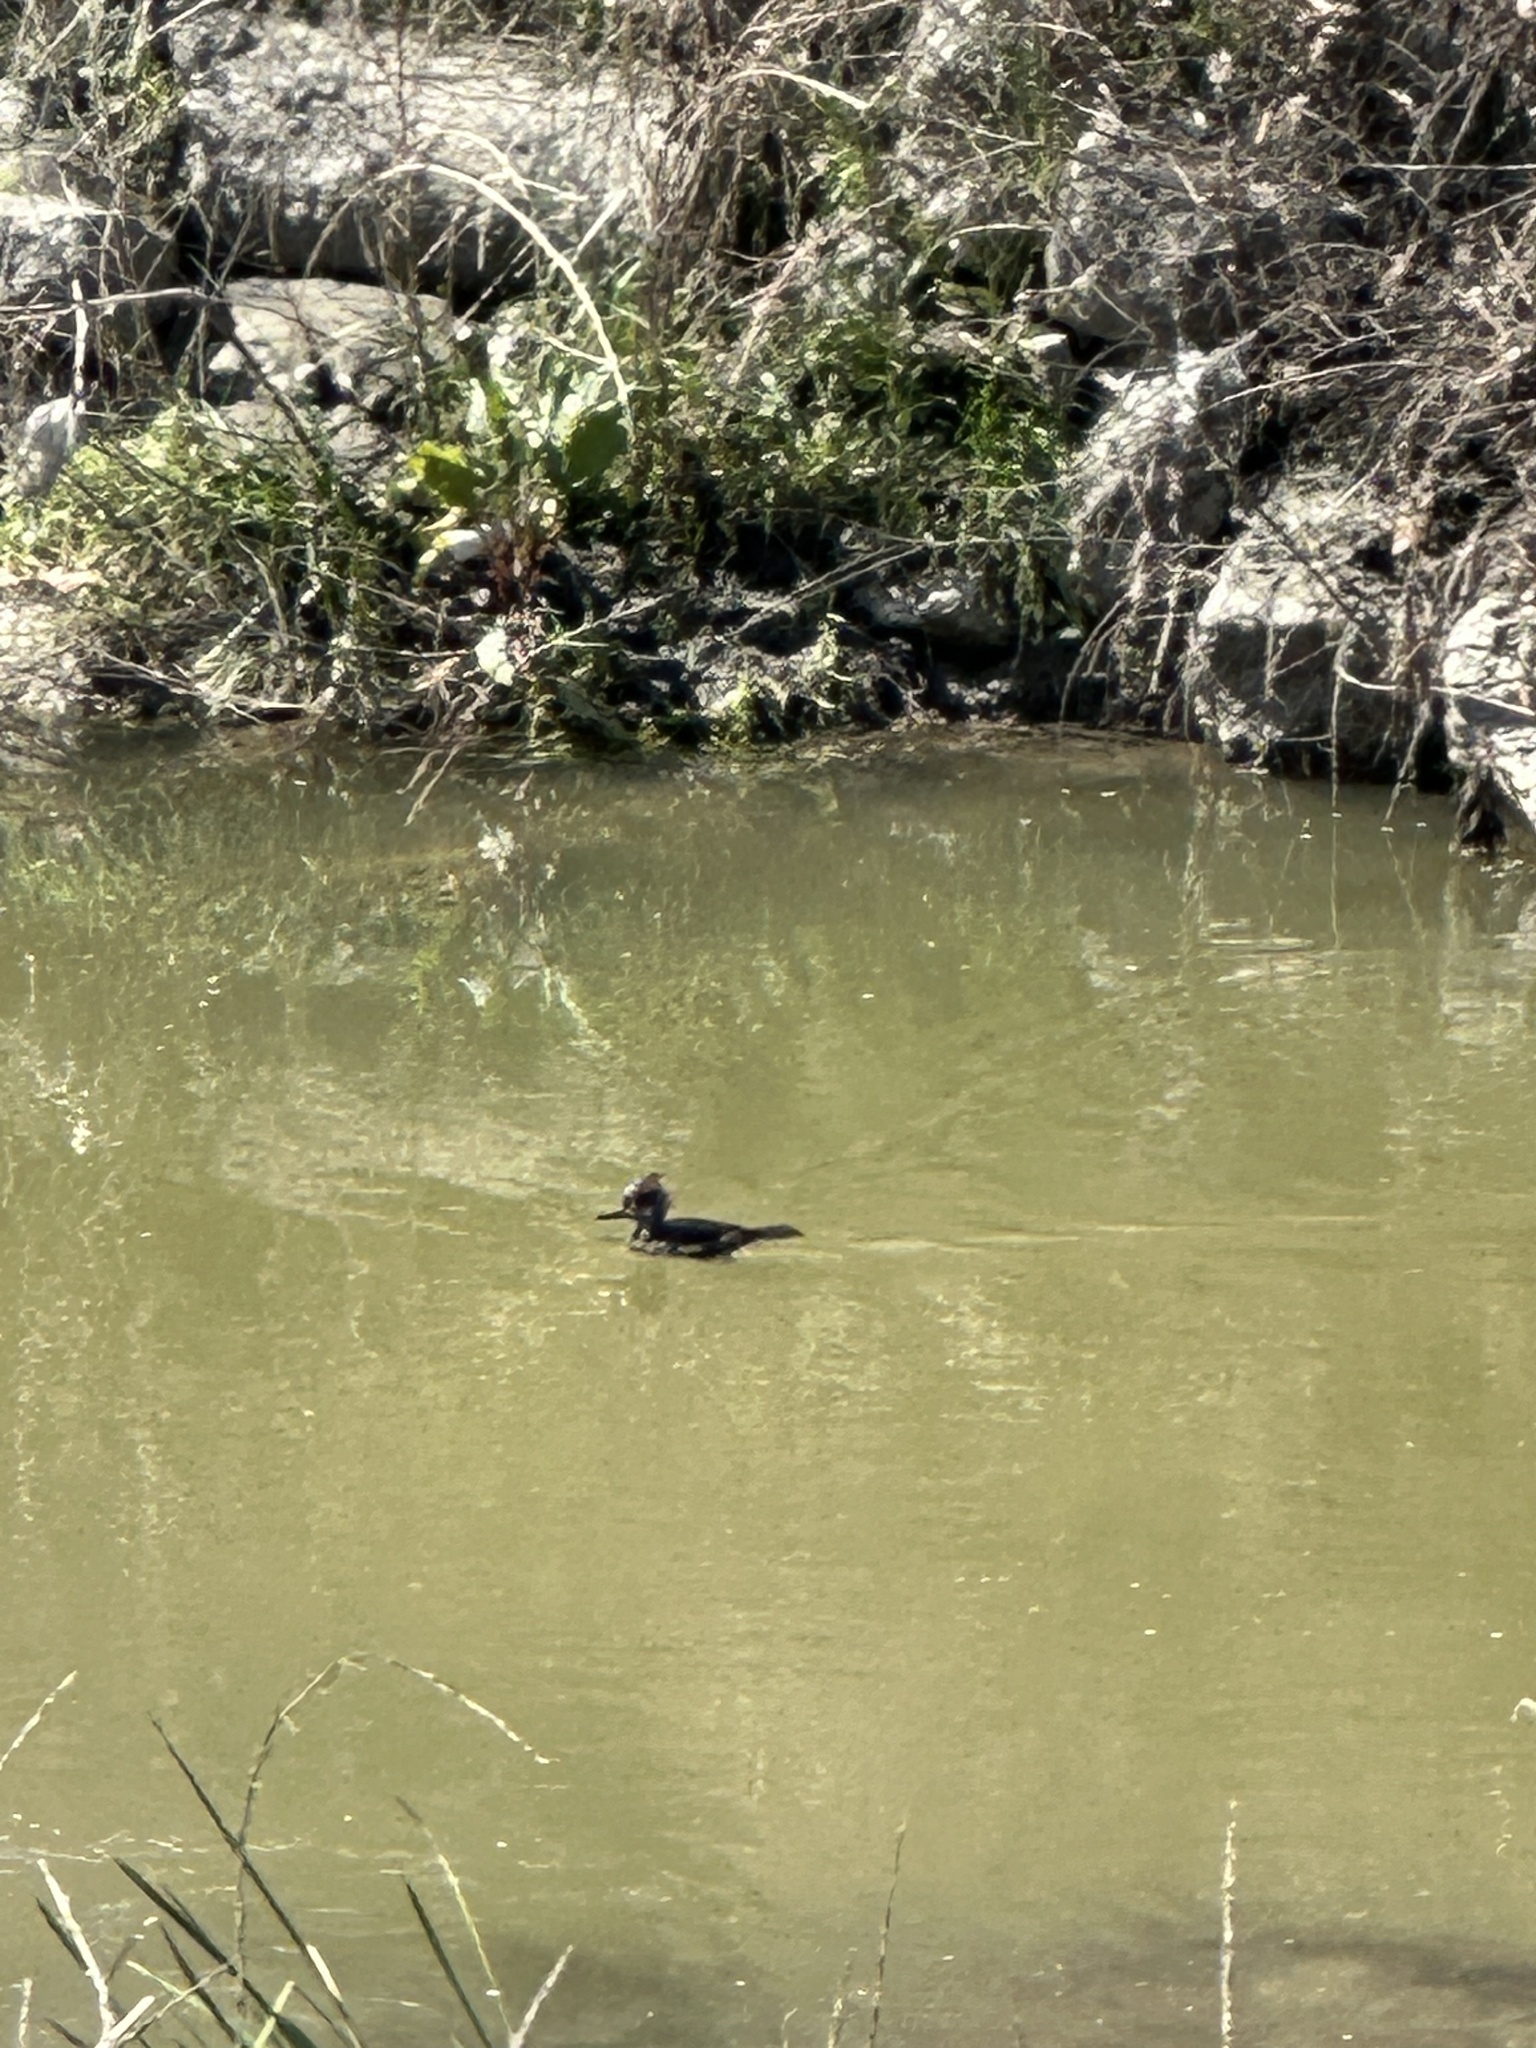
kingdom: Animalia
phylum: Chordata
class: Aves
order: Anseriformes
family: Anatidae
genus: Lophodytes
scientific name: Lophodytes cucullatus
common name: Hooded merganser
